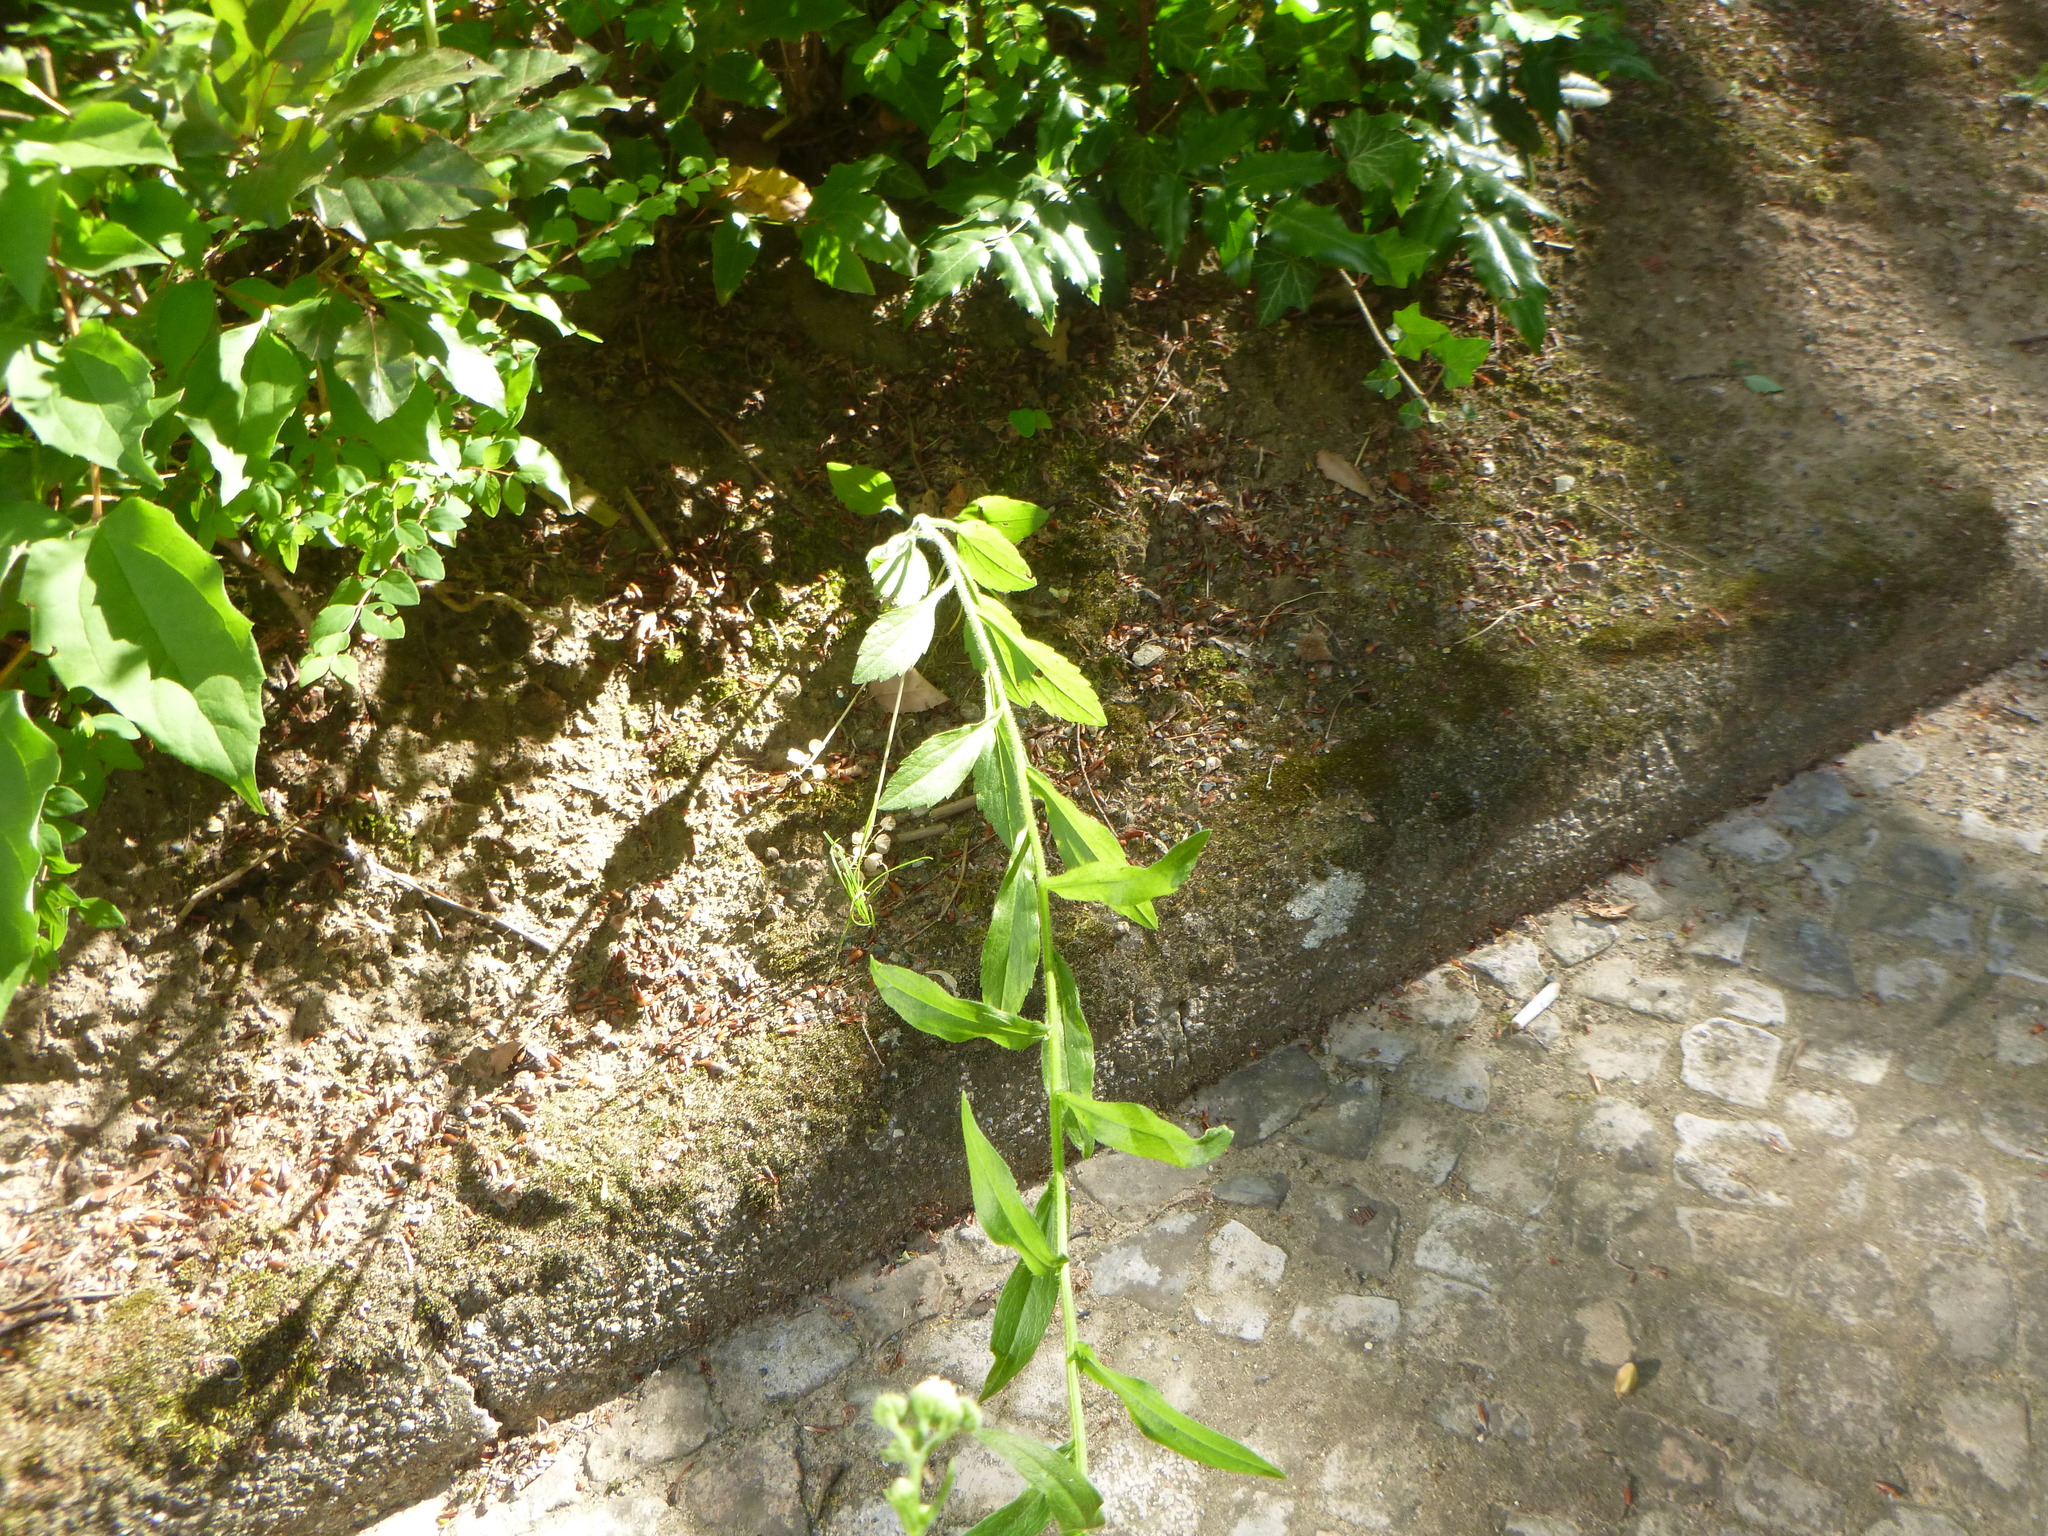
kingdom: Plantae
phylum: Tracheophyta
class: Magnoliopsida
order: Asterales
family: Asteraceae
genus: Erigeron
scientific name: Erigeron annuus
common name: Tall fleabane
